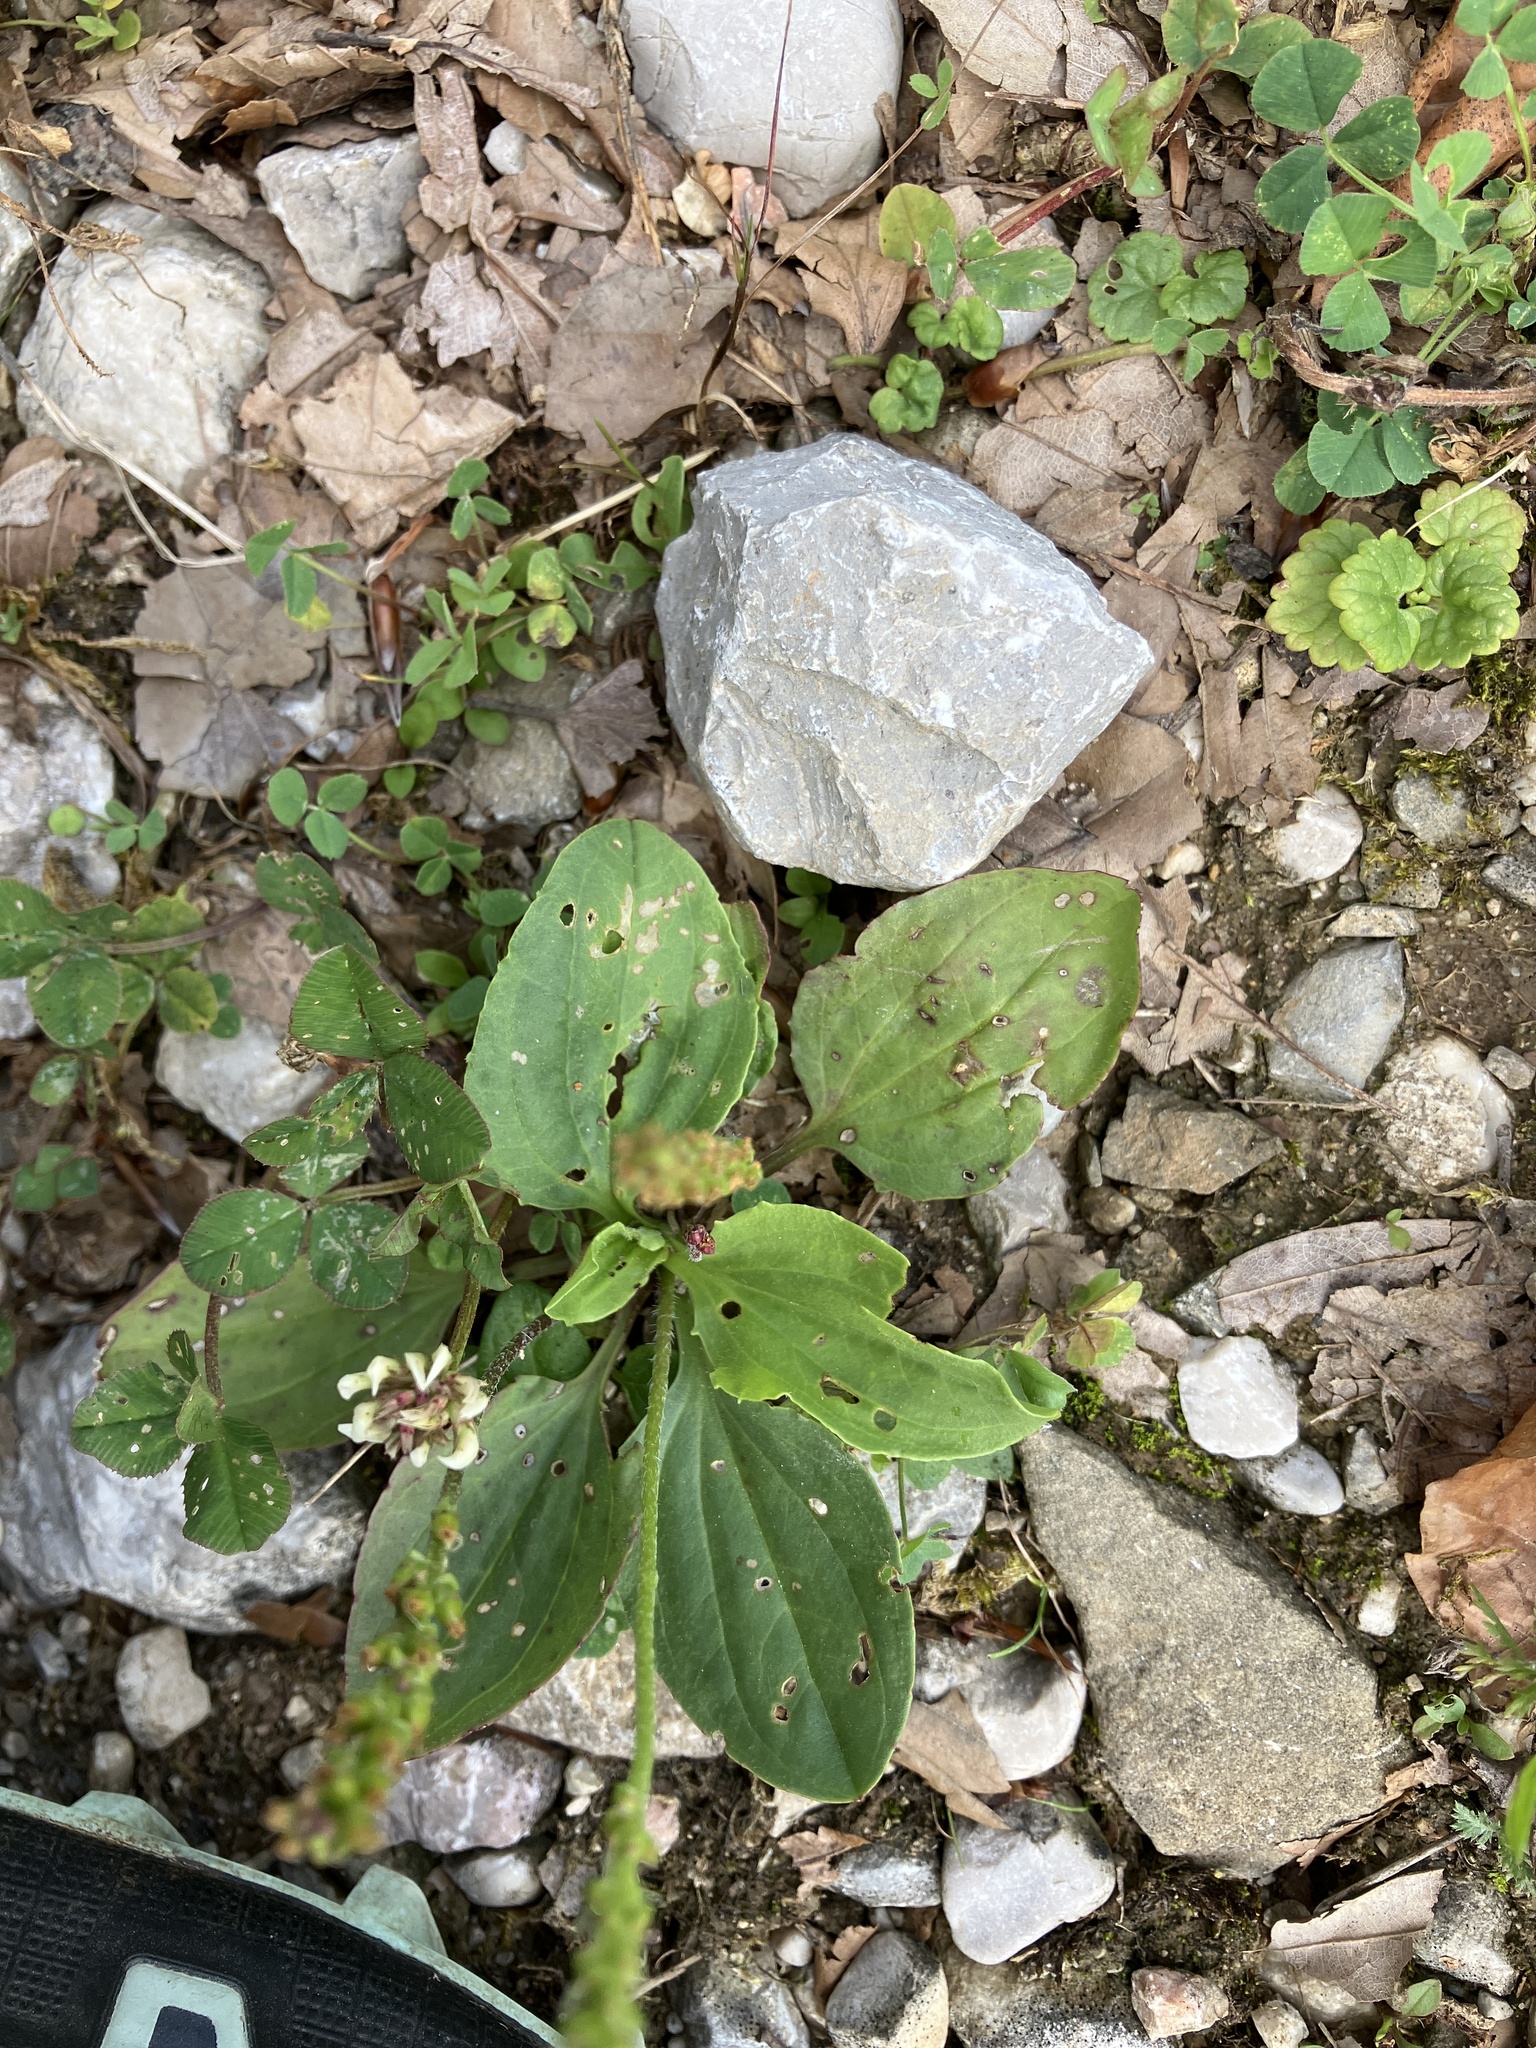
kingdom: Plantae
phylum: Tracheophyta
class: Magnoliopsida
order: Lamiales
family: Plantaginaceae
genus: Plantago
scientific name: Plantago major
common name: Common plantain
